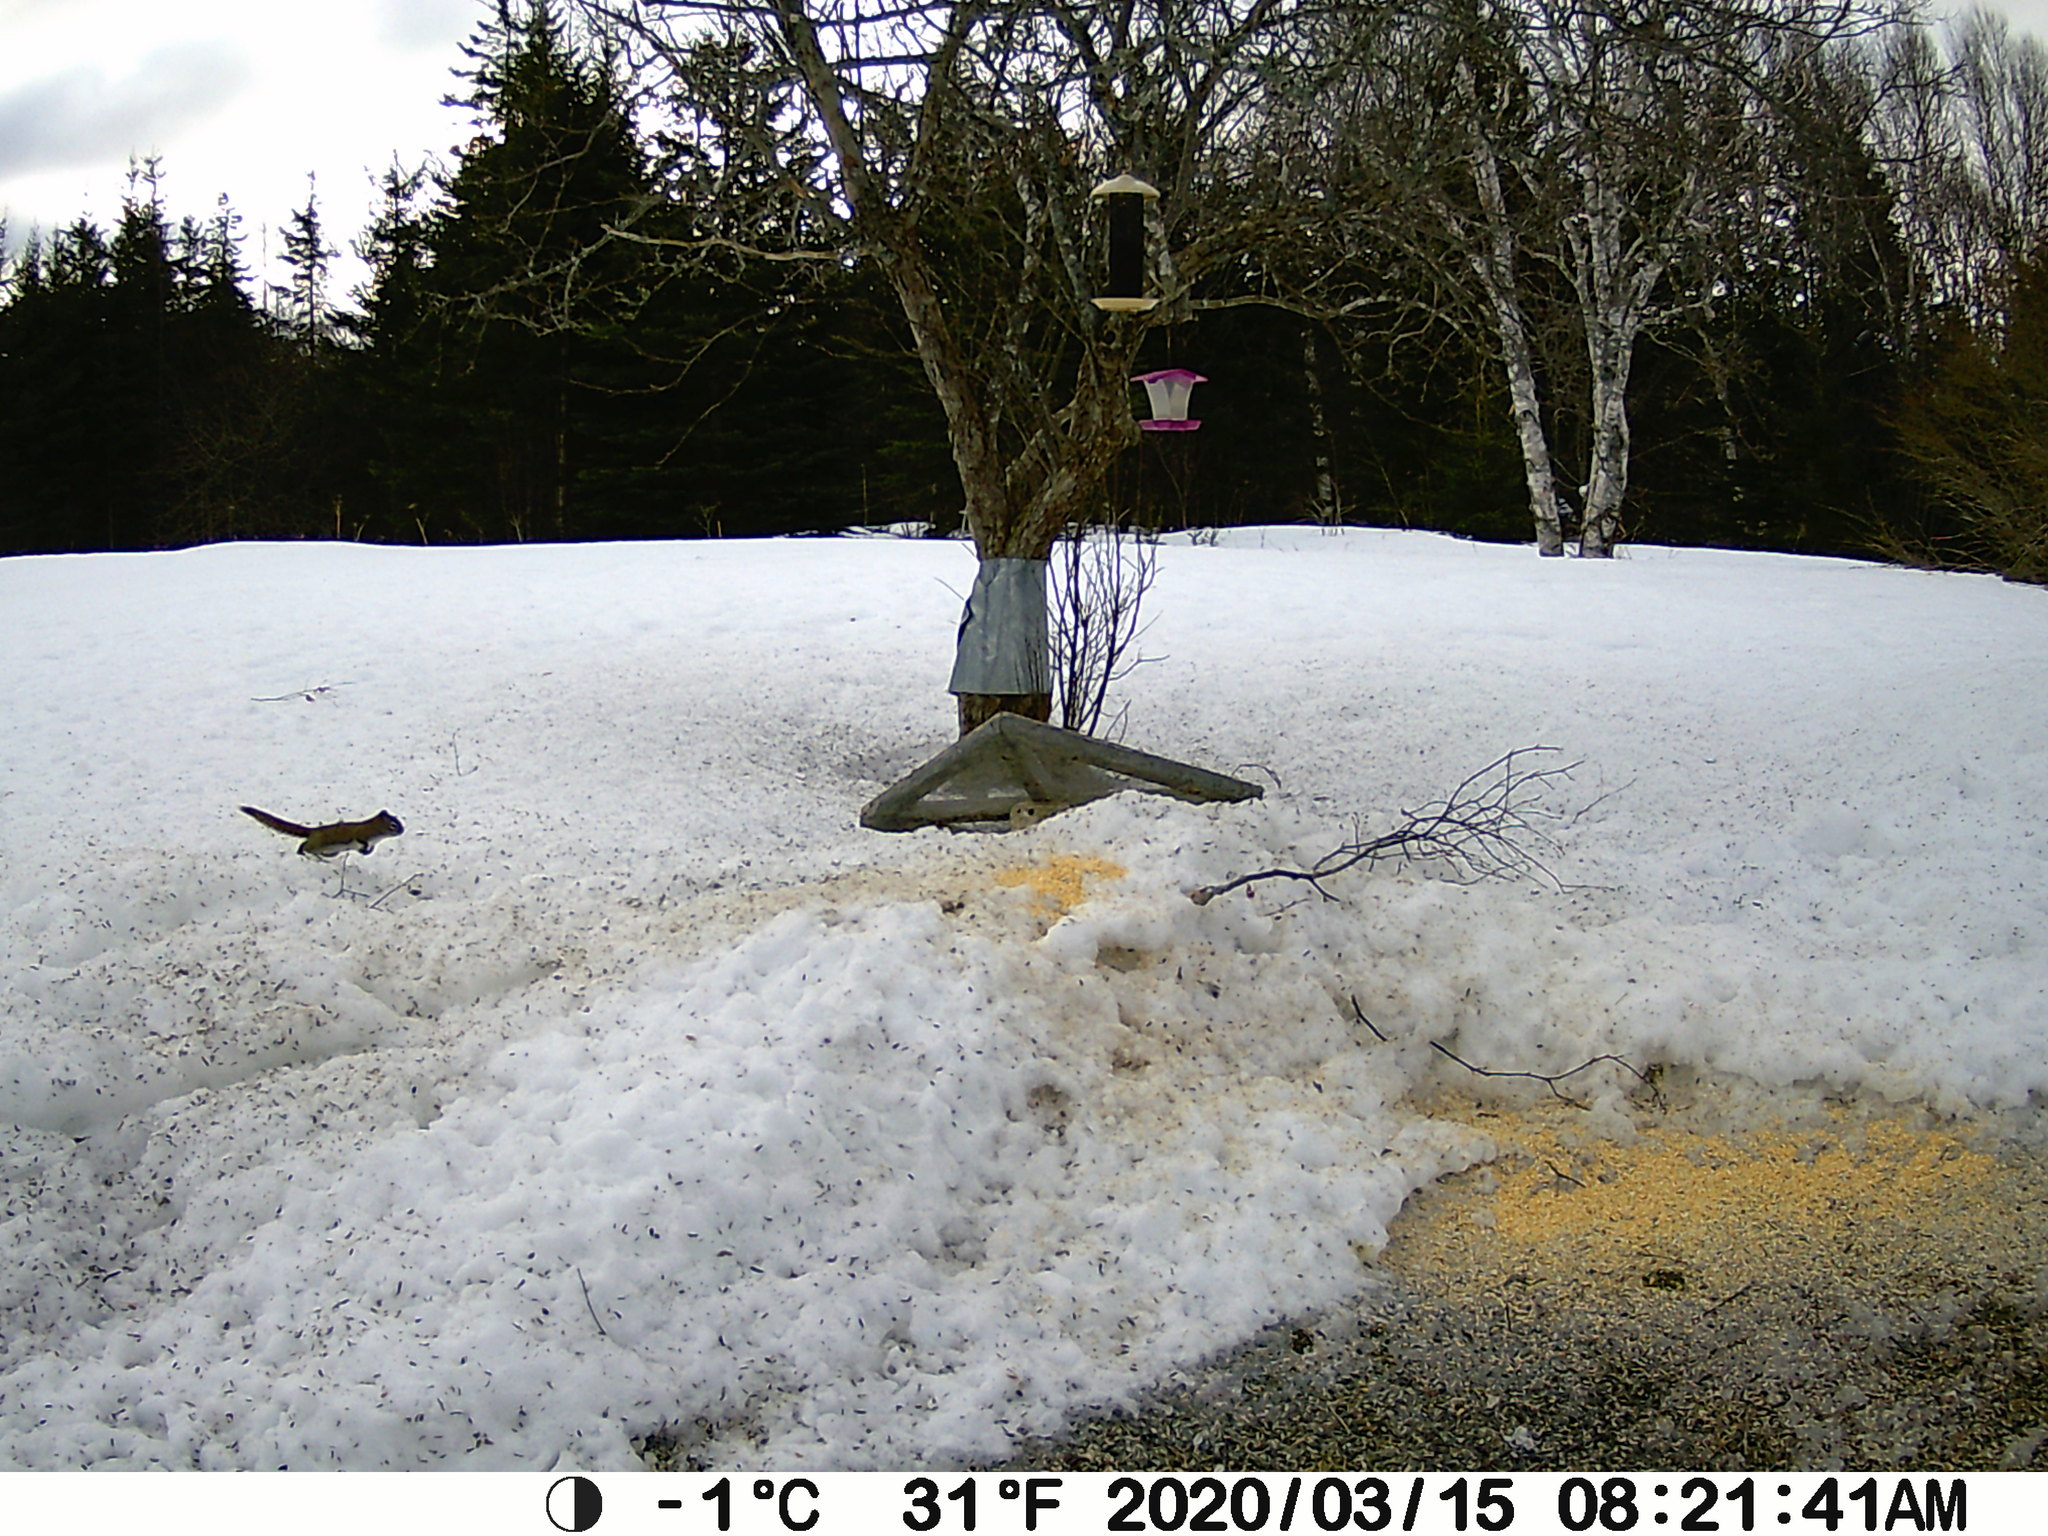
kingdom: Animalia
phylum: Chordata
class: Mammalia
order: Rodentia
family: Sciuridae
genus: Tamiasciurus
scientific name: Tamiasciurus hudsonicus
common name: Red squirrel
